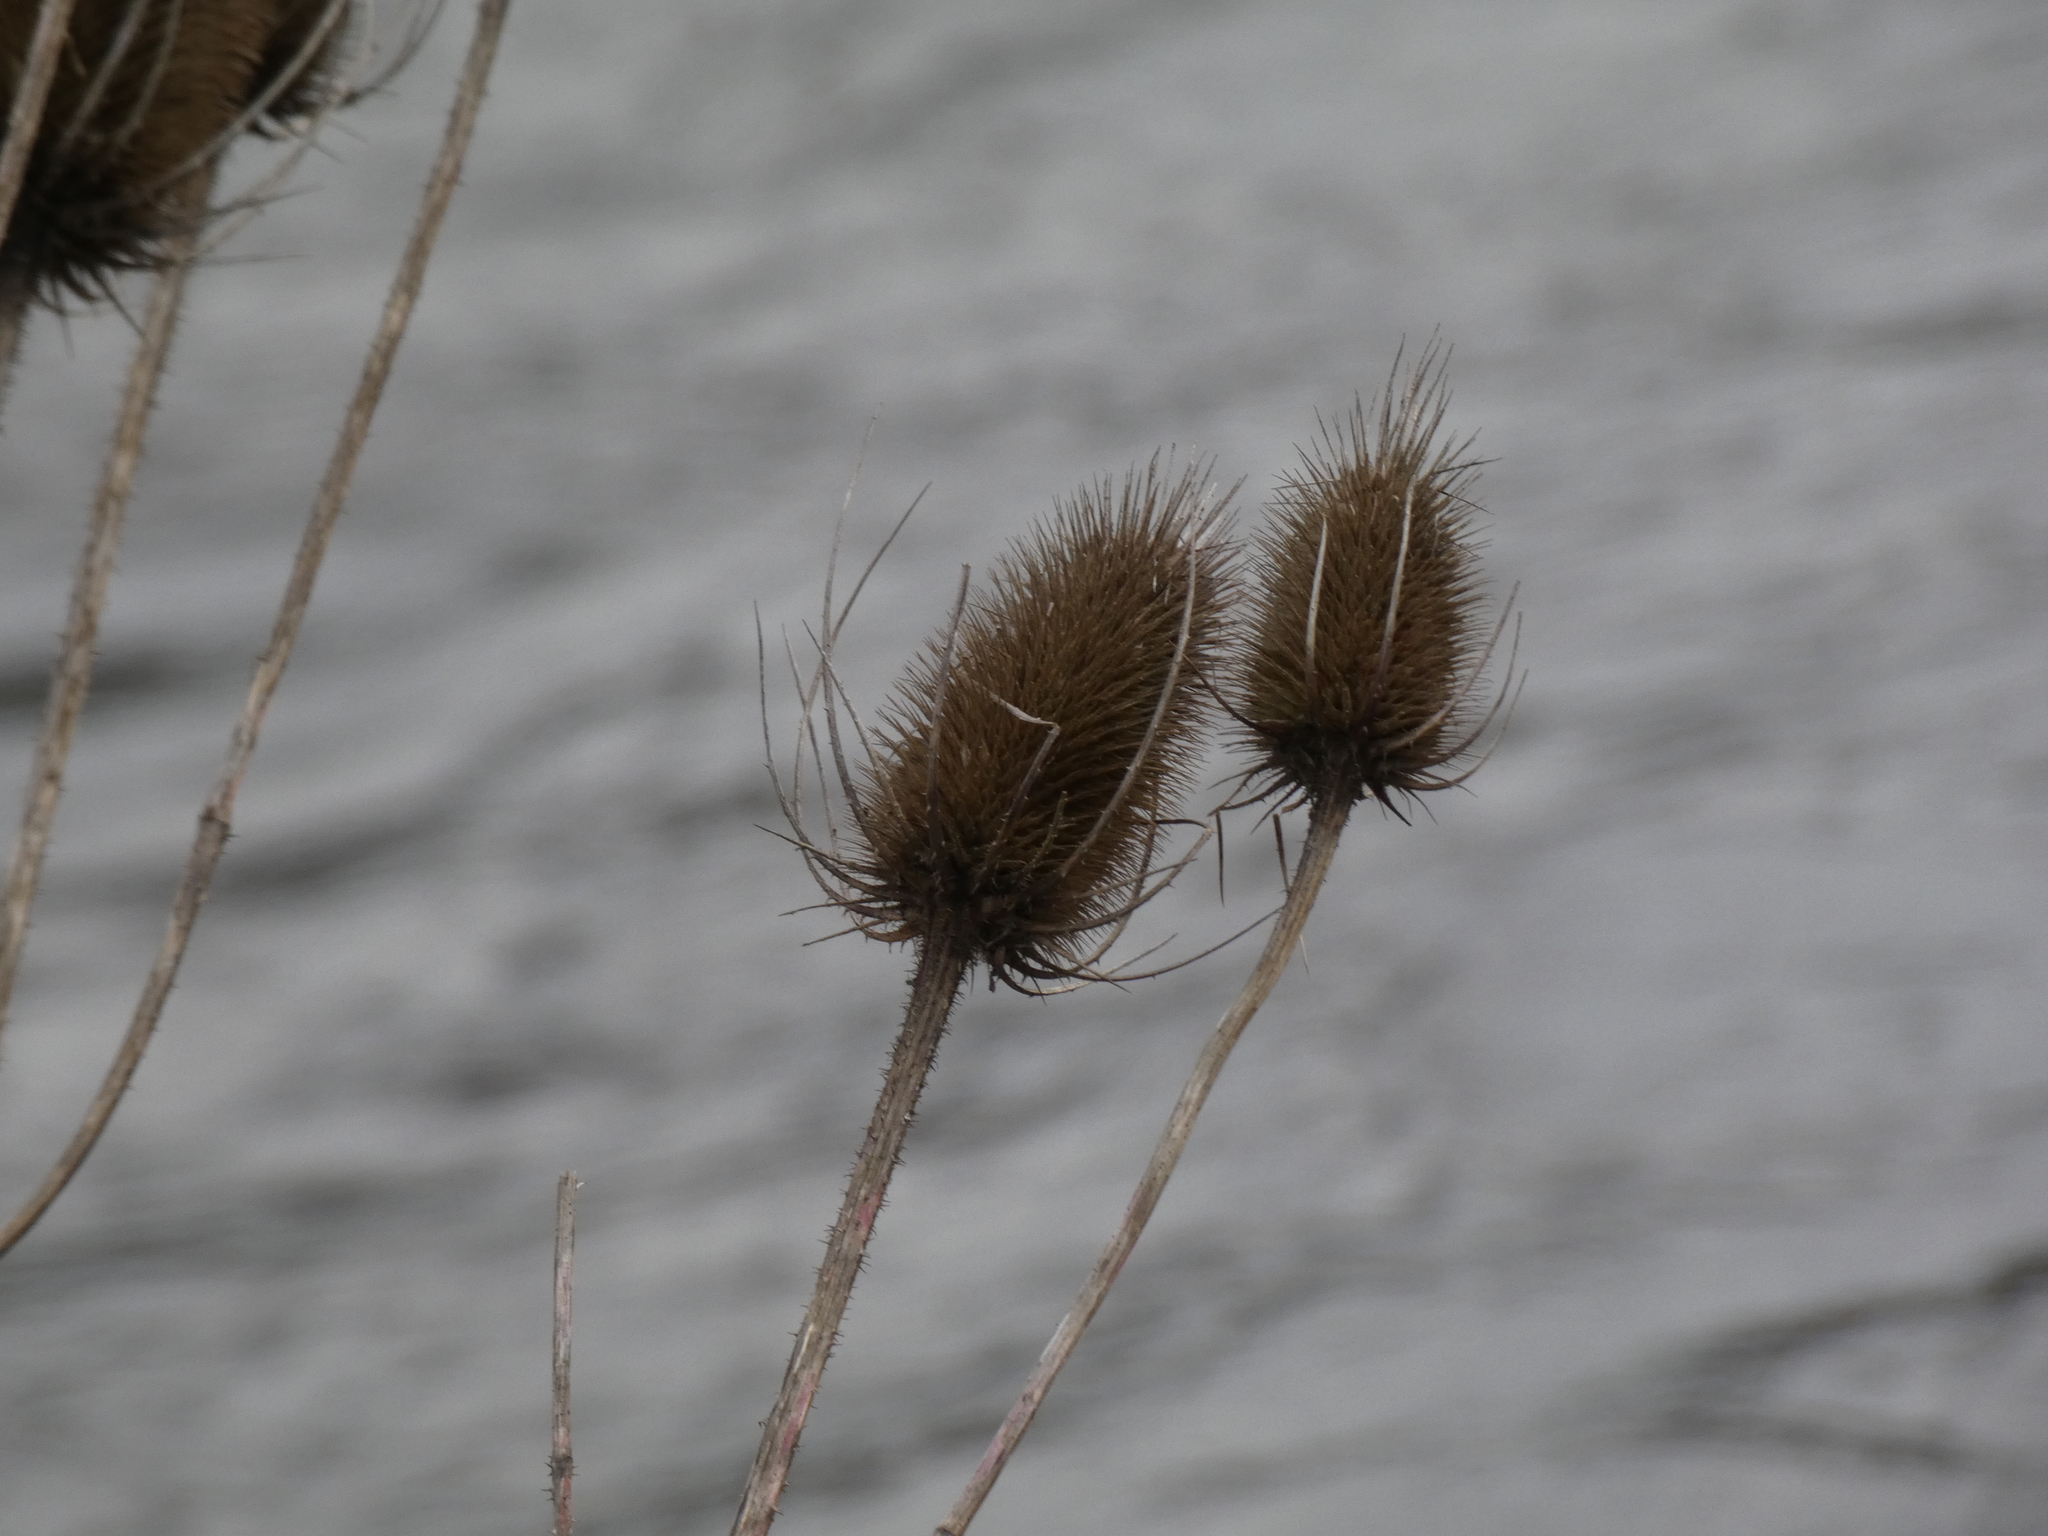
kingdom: Plantae
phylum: Tracheophyta
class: Magnoliopsida
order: Dipsacales
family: Caprifoliaceae
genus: Dipsacus
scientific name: Dipsacus fullonum
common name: Teasel
